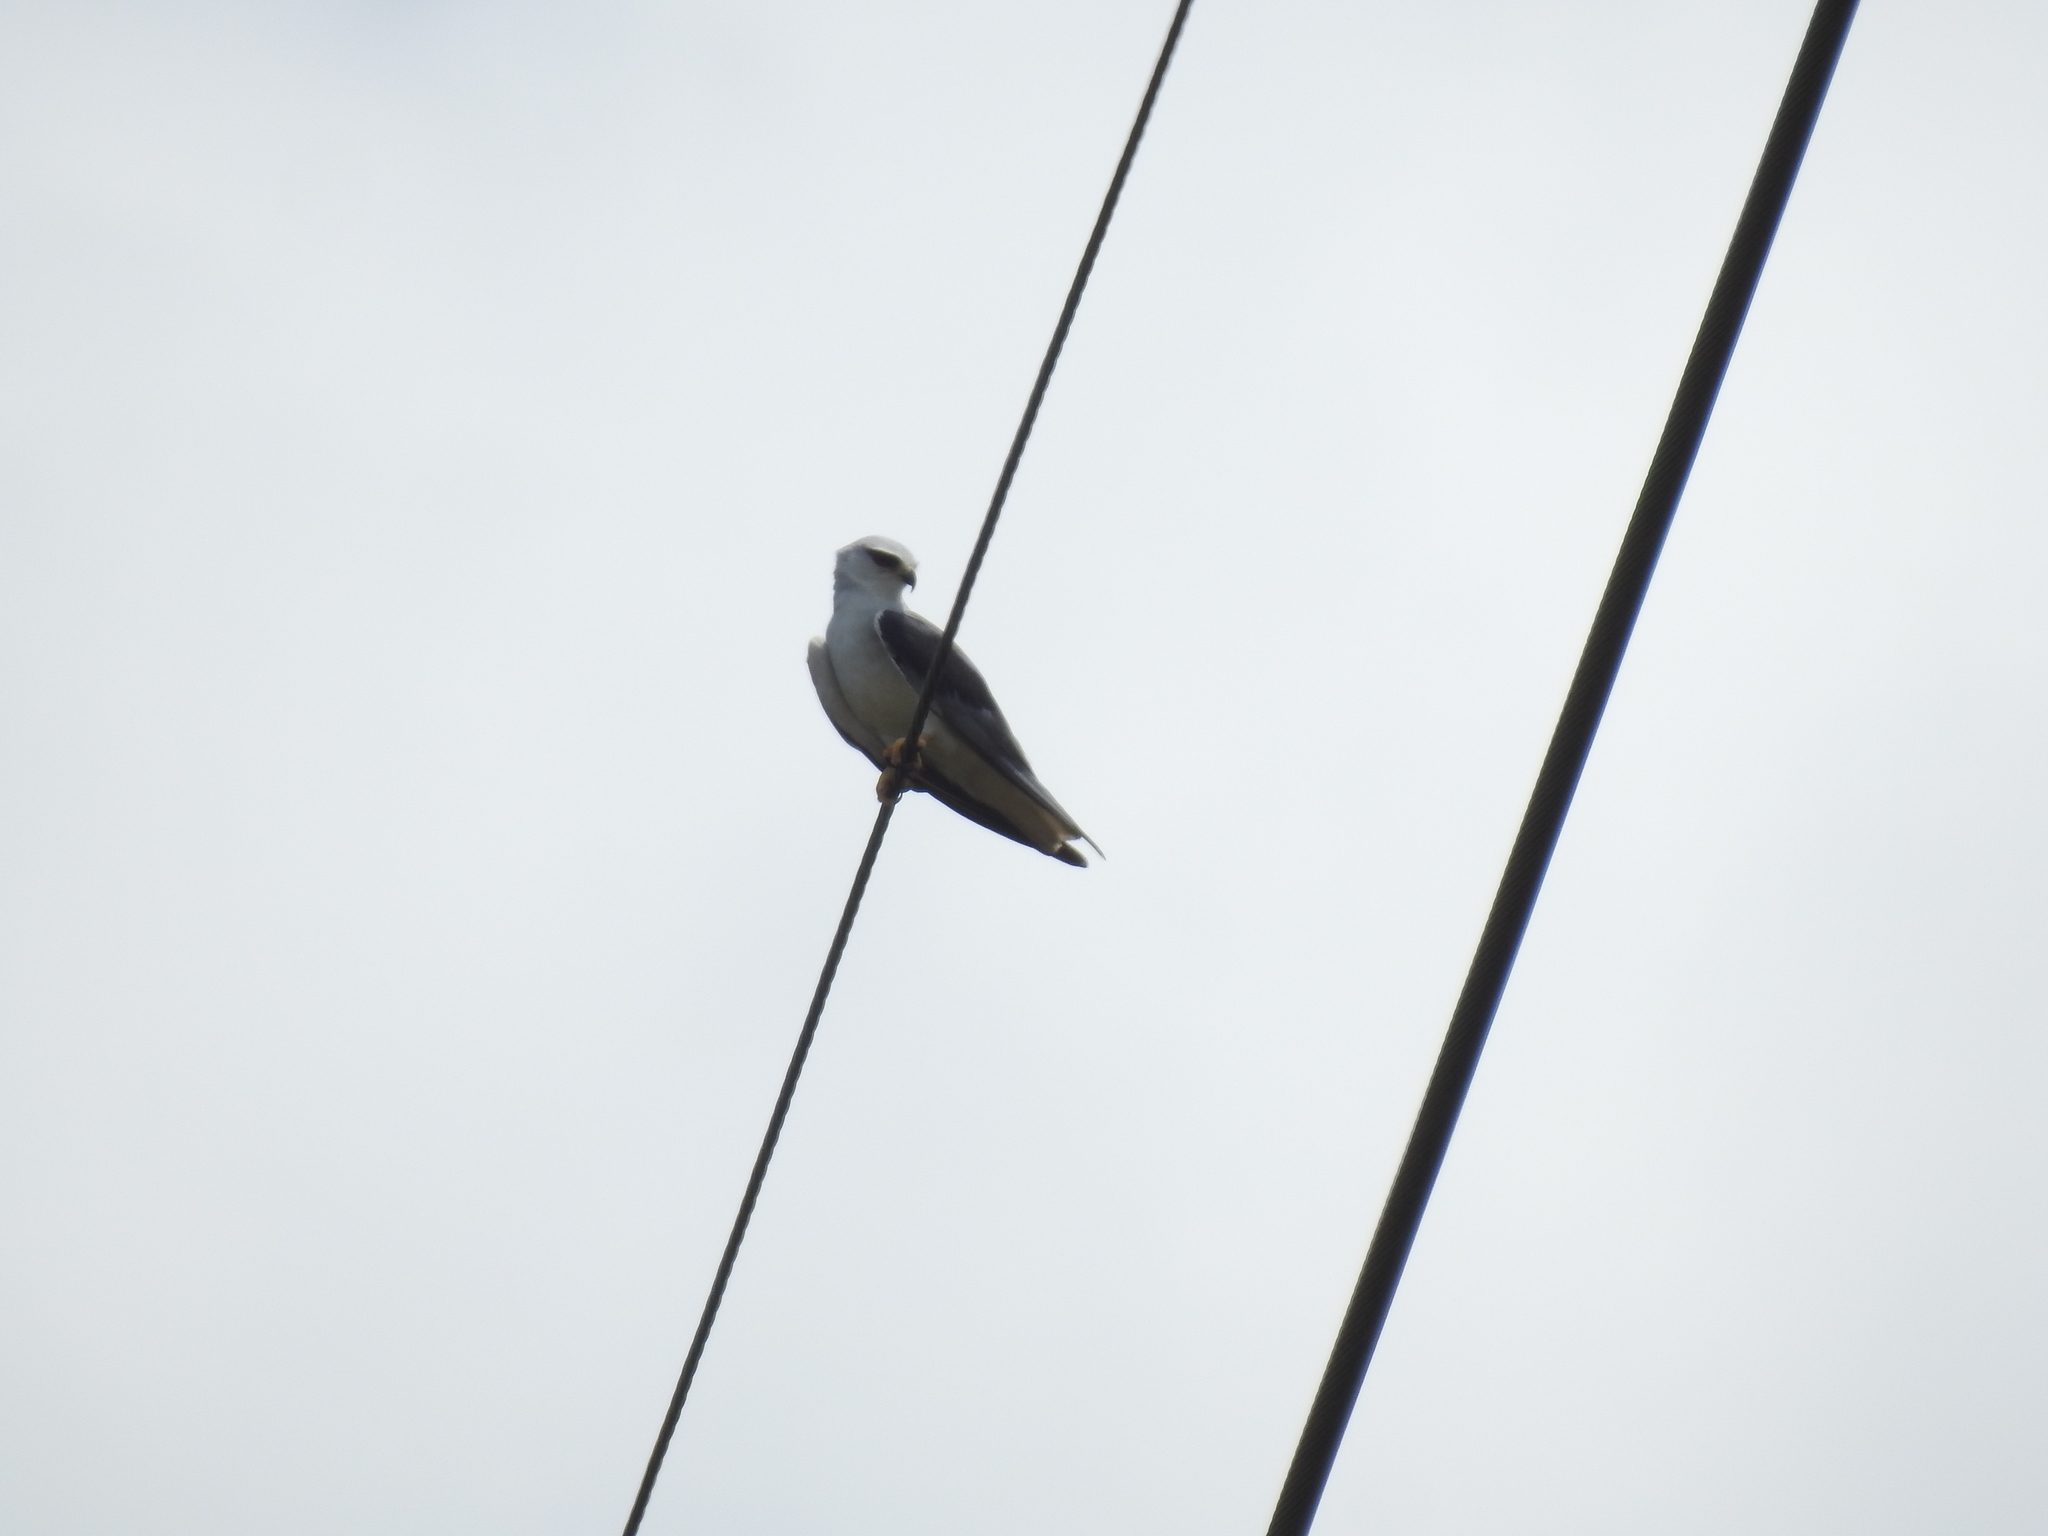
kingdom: Animalia
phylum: Chordata
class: Aves
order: Accipitriformes
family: Accipitridae
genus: Elanus
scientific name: Elanus caeruleus
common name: Black-winged kite
